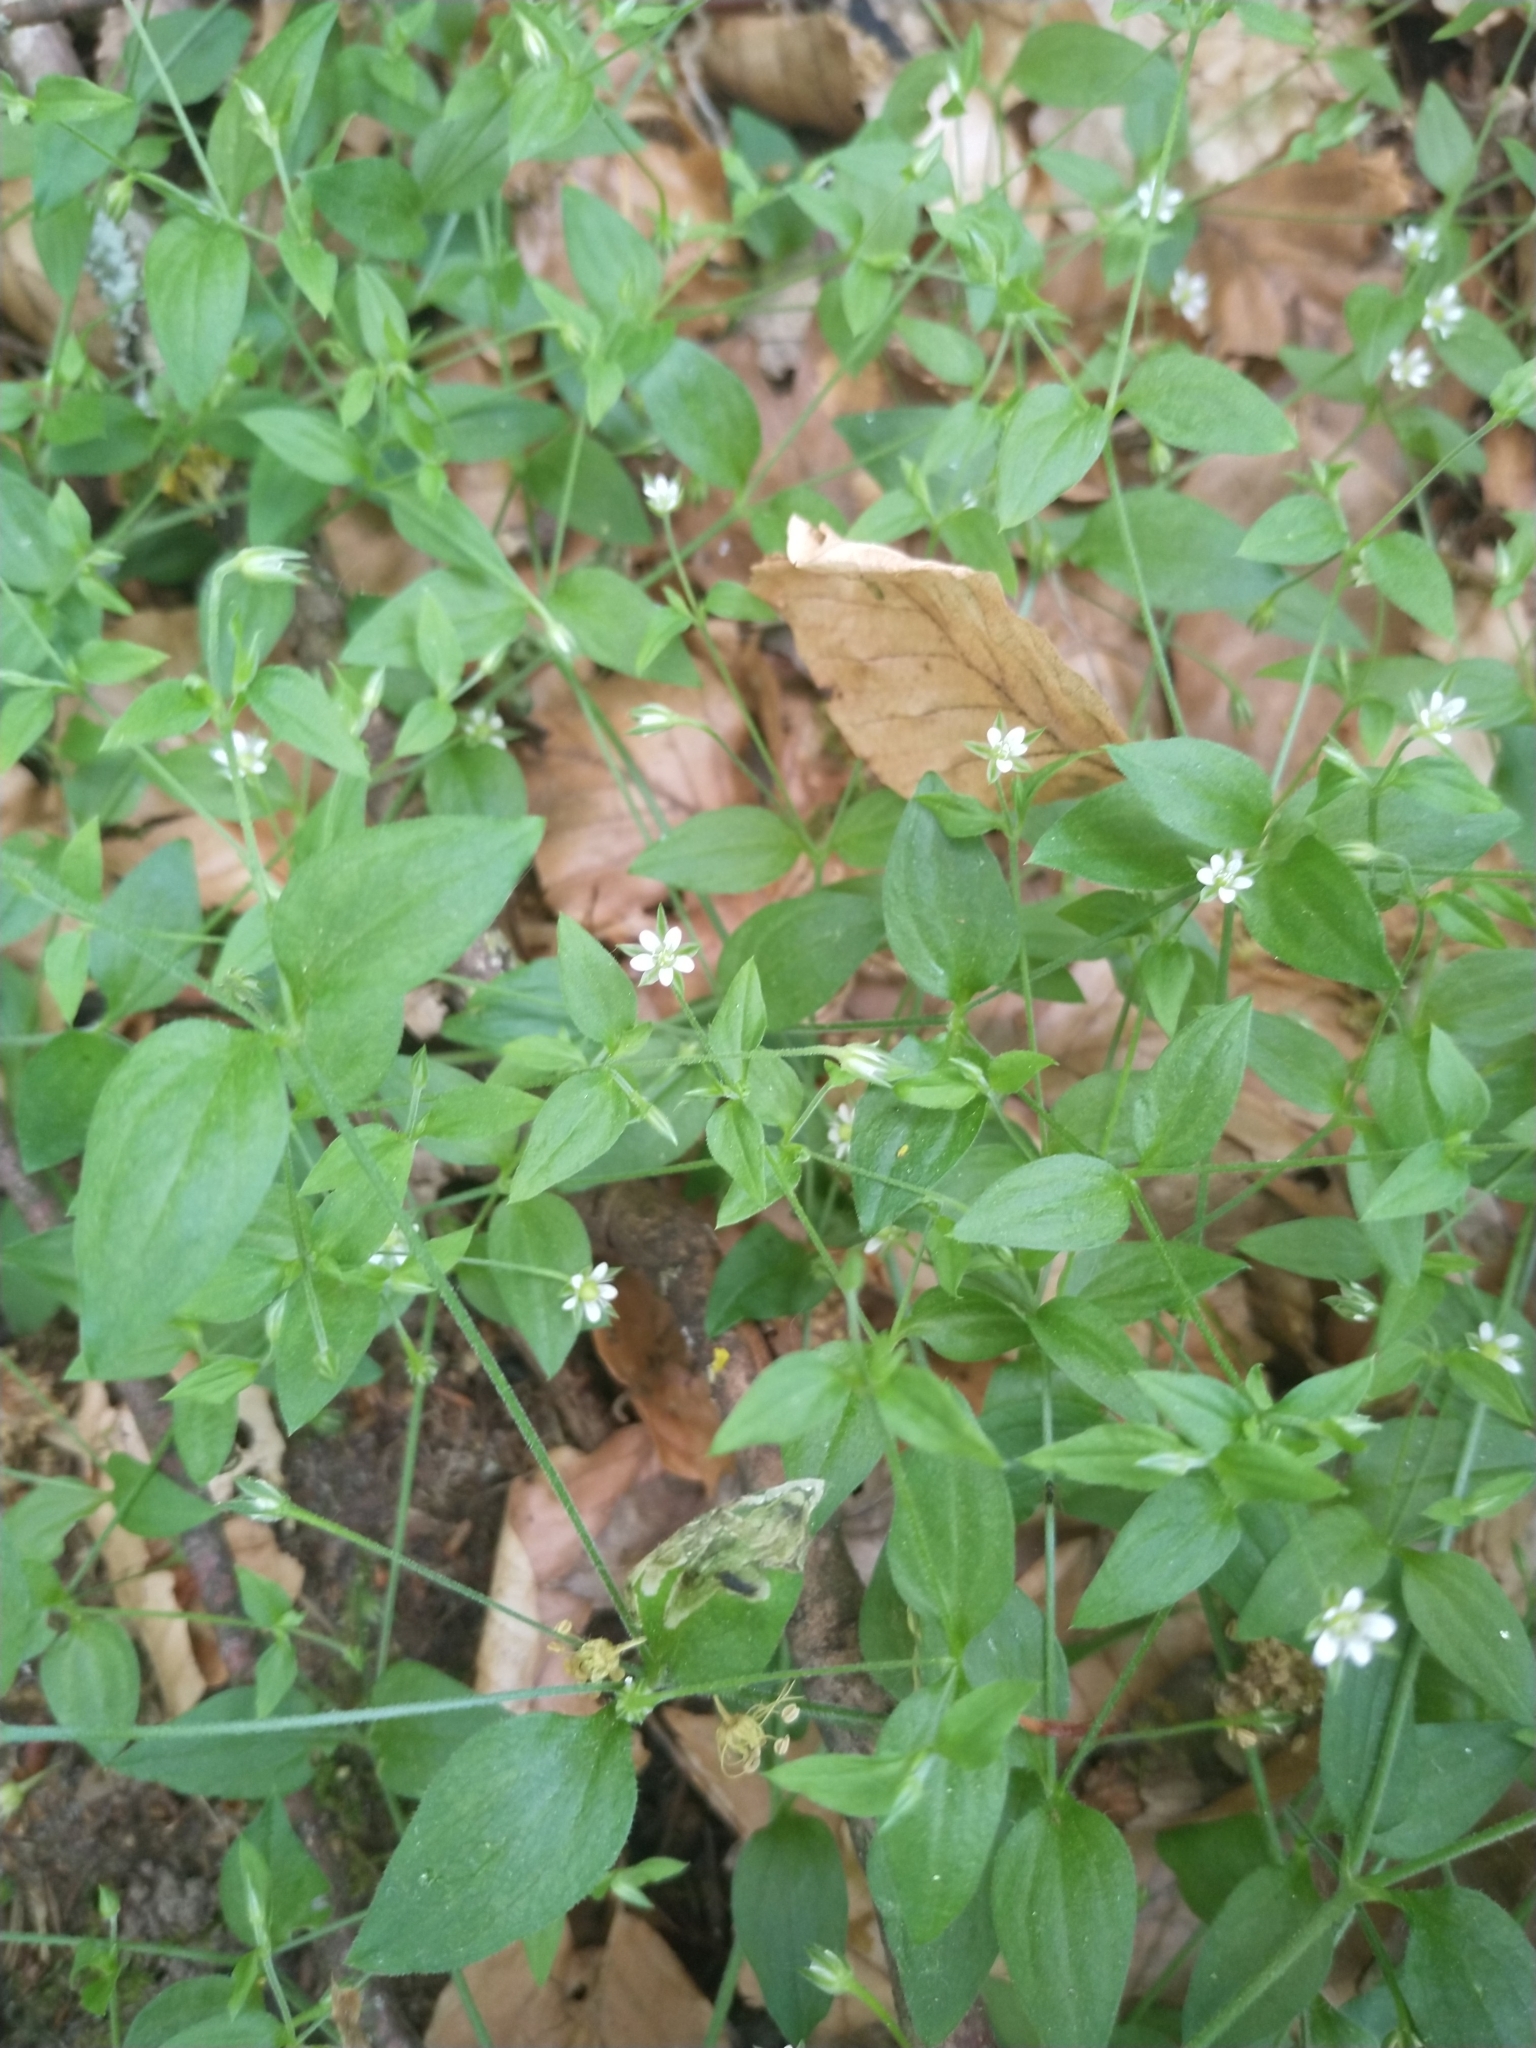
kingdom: Plantae
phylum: Tracheophyta
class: Magnoliopsida
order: Caryophyllales
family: Caryophyllaceae
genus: Moehringia
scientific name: Moehringia trinervia
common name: Three-nerved sandwort
